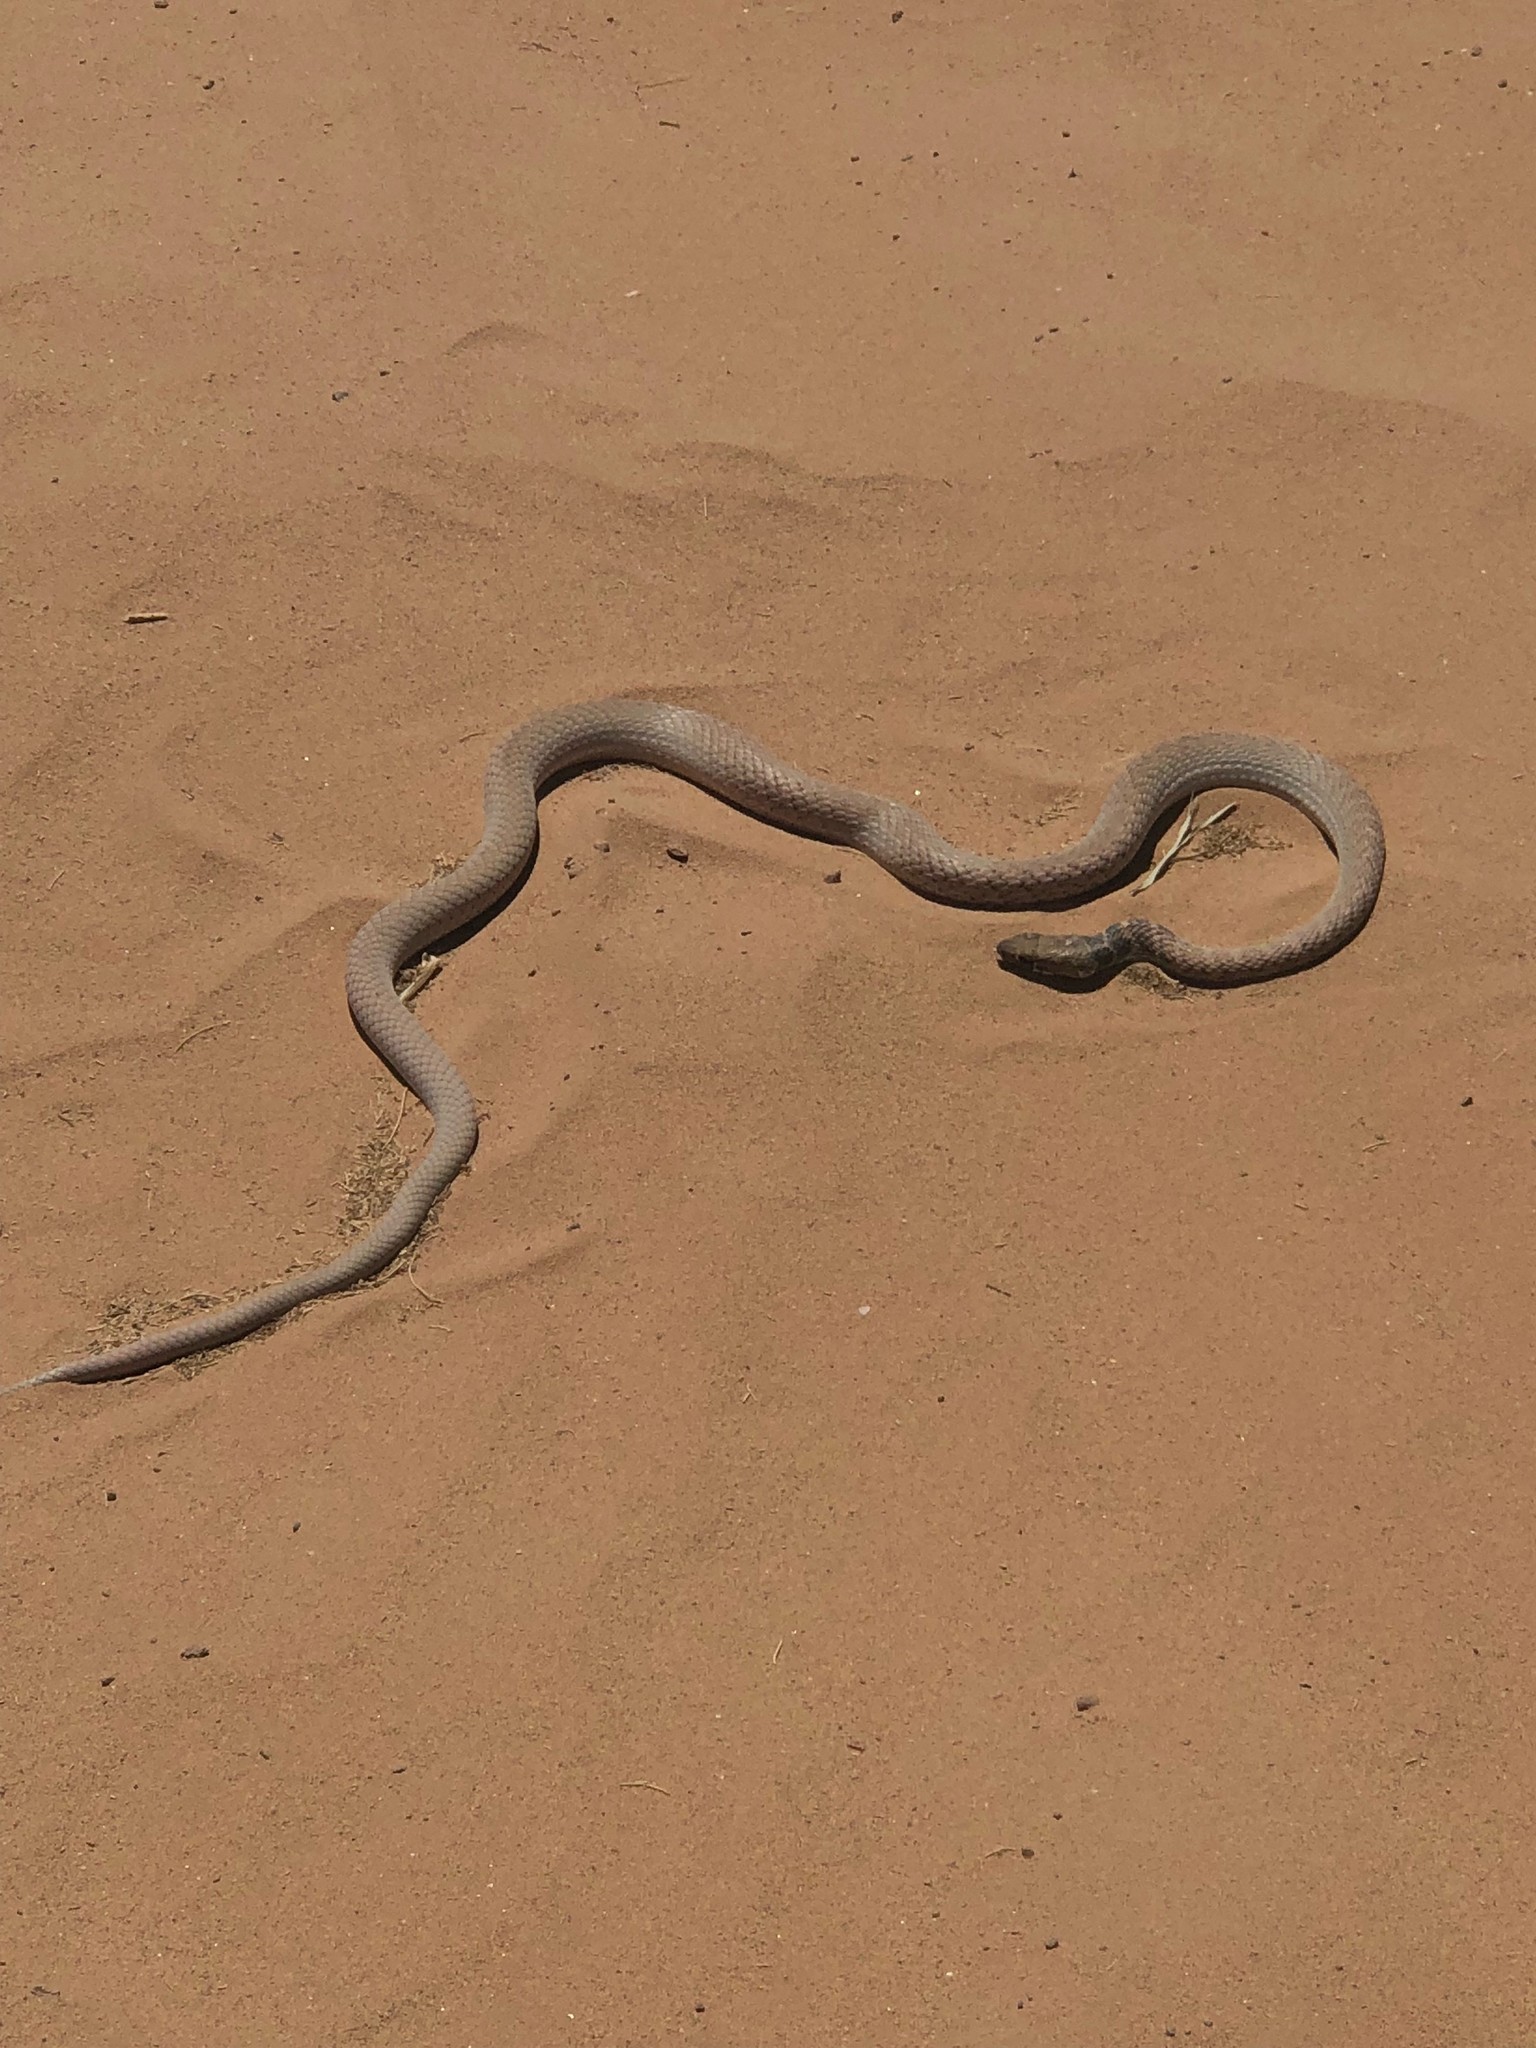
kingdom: Animalia
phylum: Chordata
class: Squamata
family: Colubridae
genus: Masticophis
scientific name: Masticophis flagellum
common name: Coachwhip
